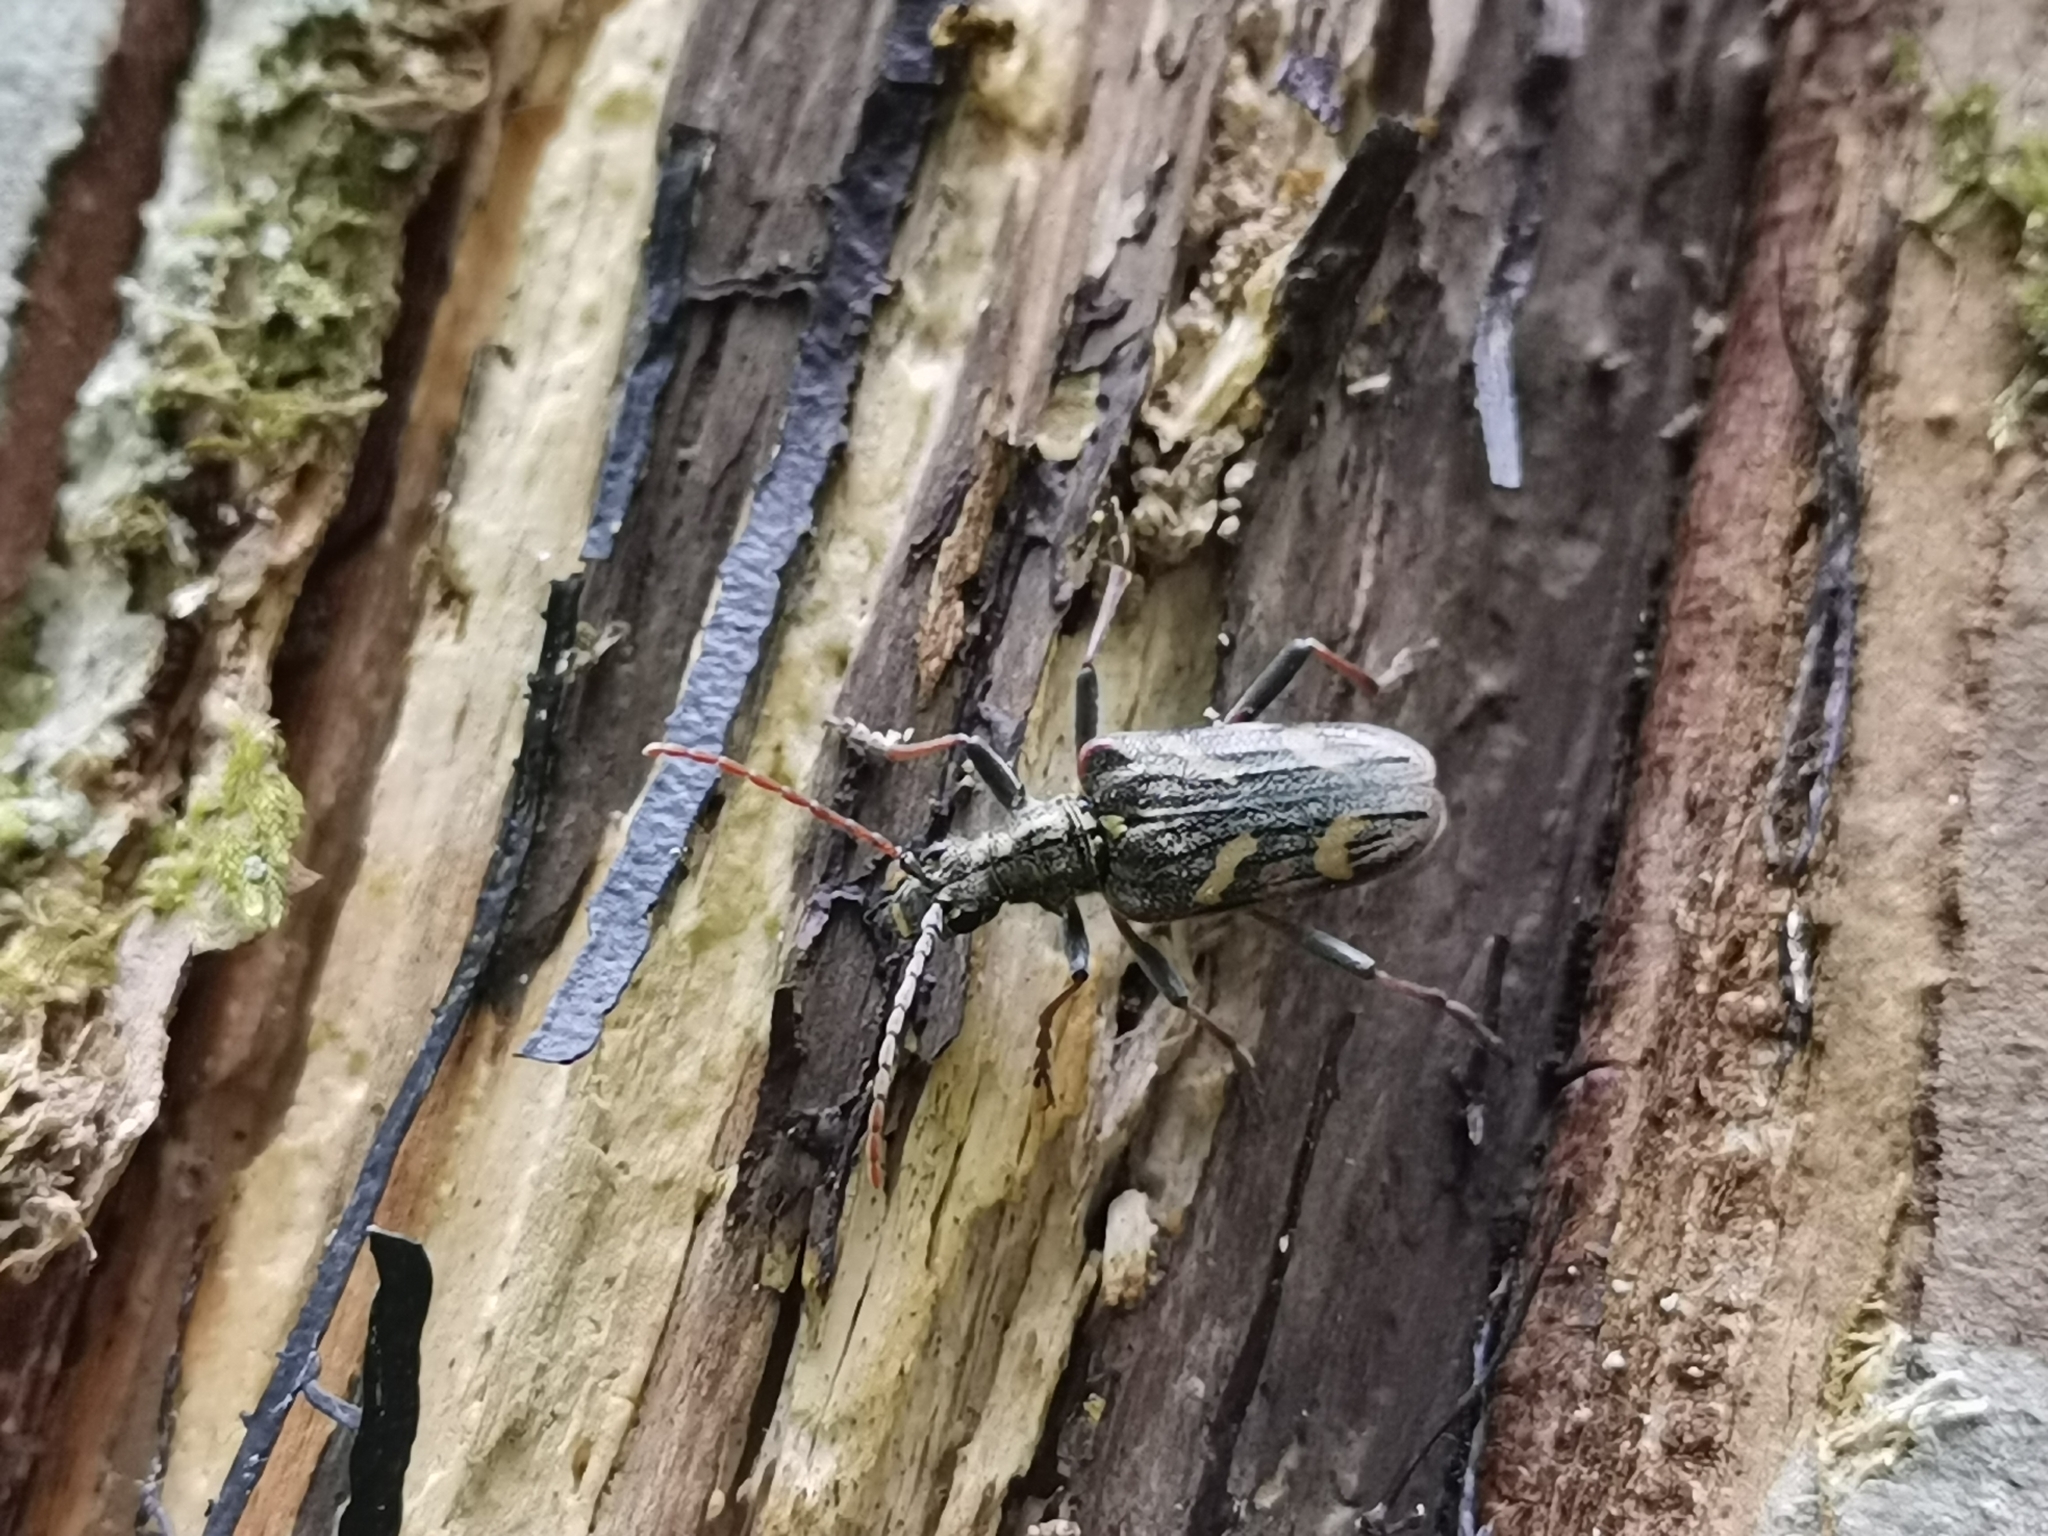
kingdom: Animalia
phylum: Arthropoda
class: Insecta
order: Coleoptera
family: Cerambycidae
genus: Rhagium
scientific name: Rhagium bifasciatum
